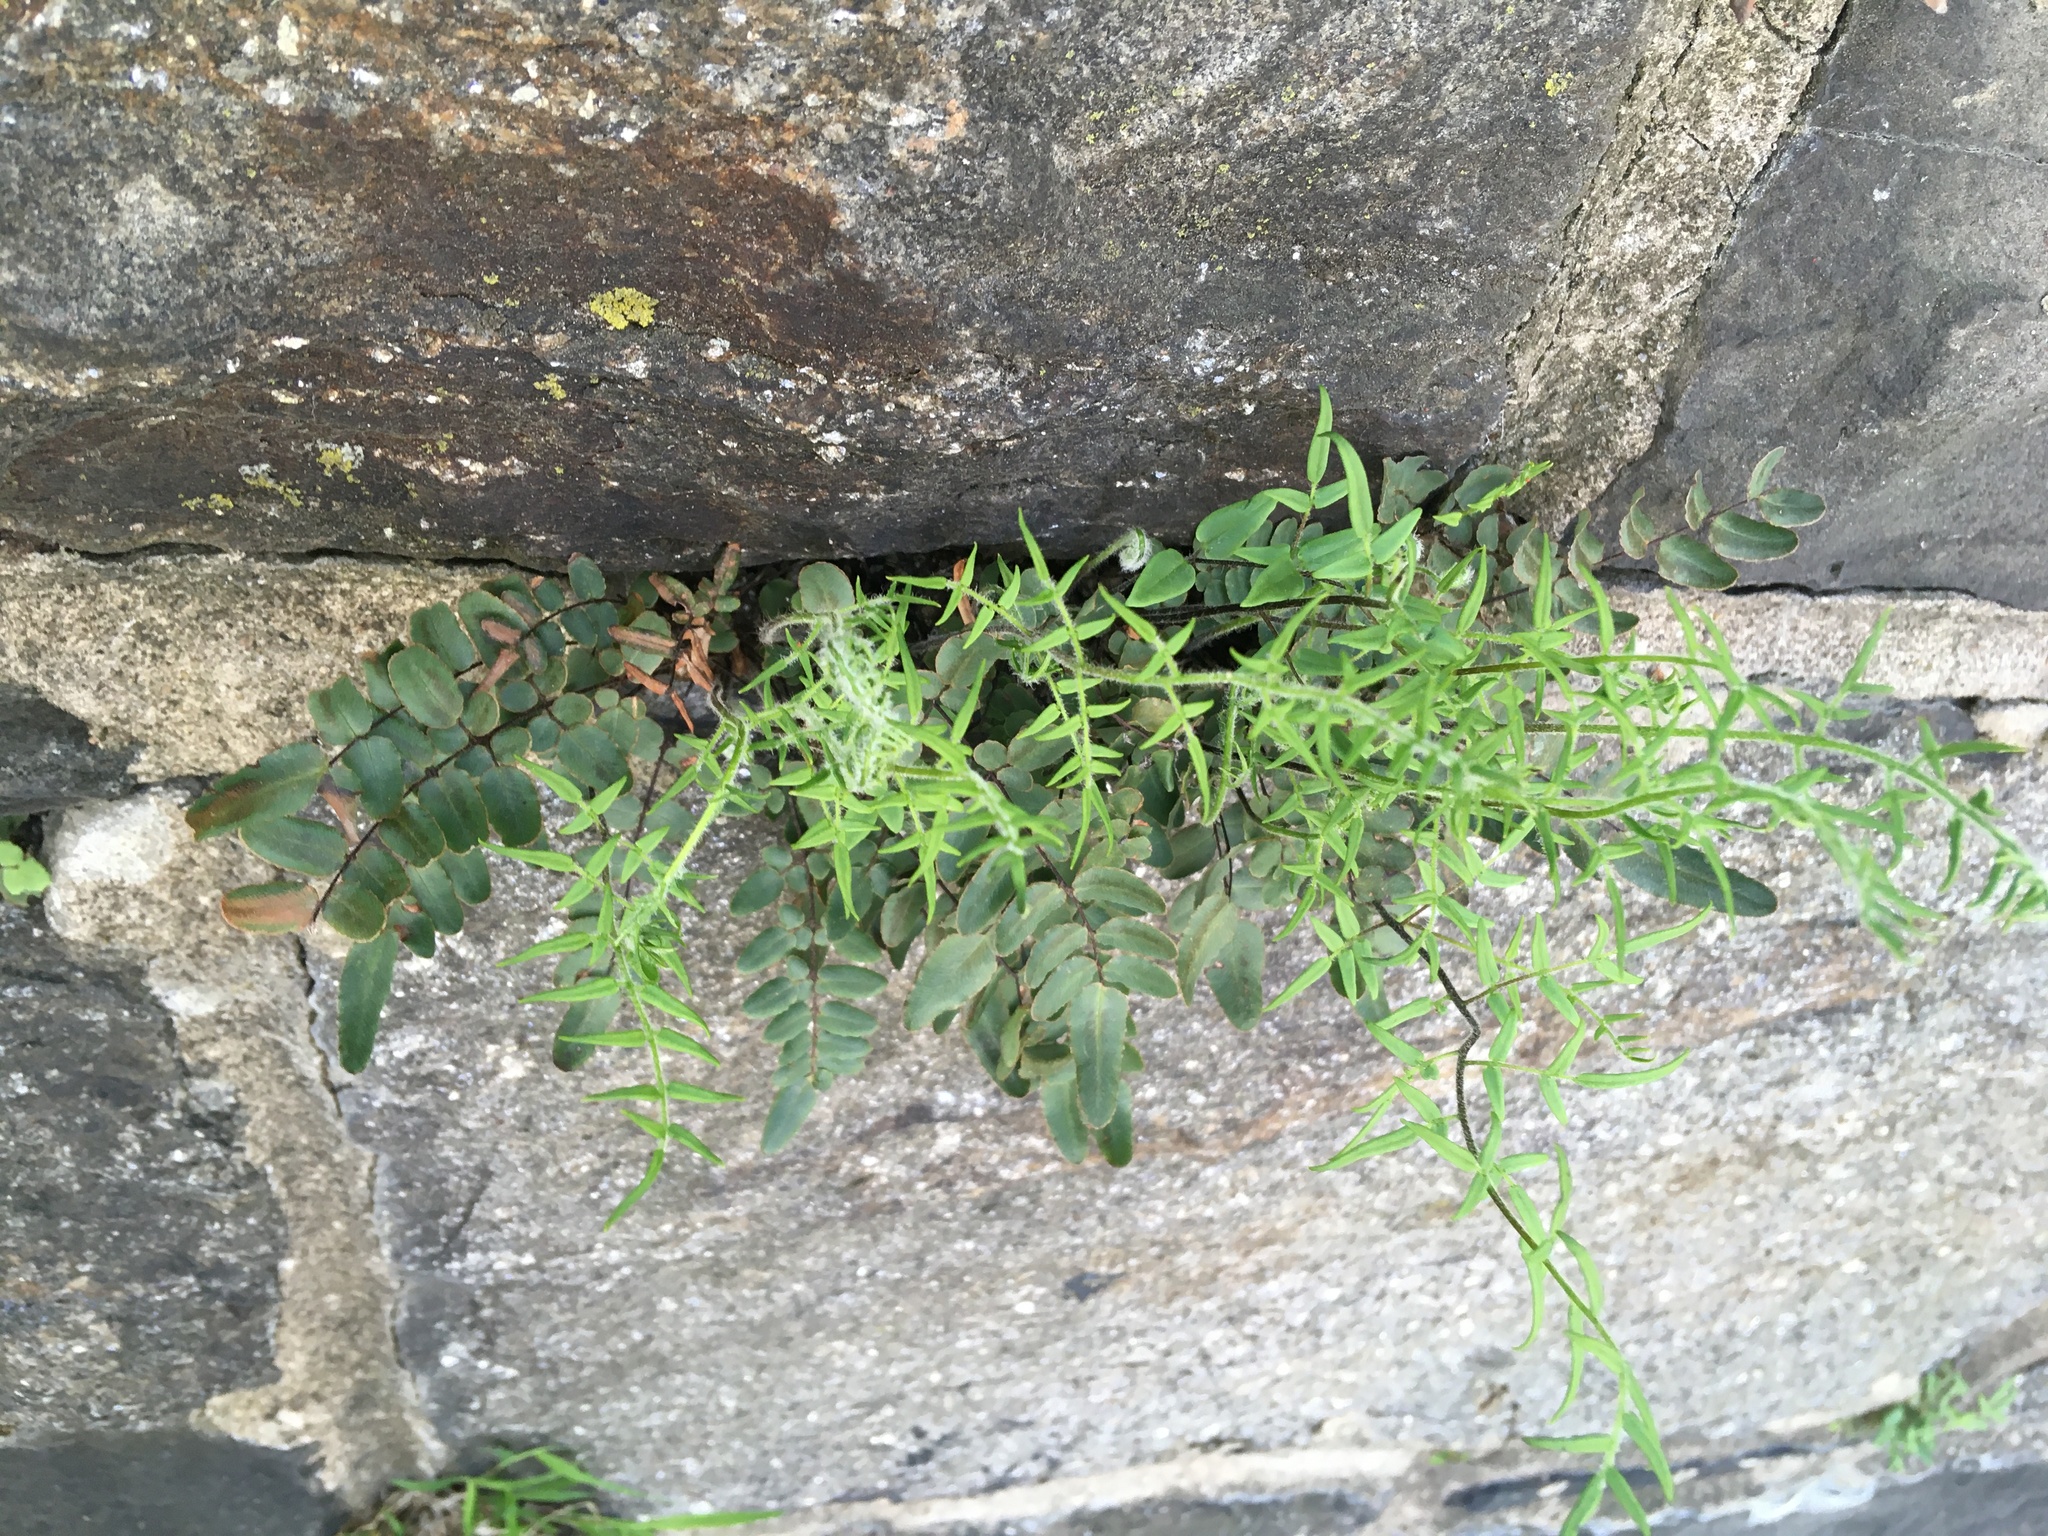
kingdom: Plantae
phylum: Tracheophyta
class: Polypodiopsida
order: Polypodiales
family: Pteridaceae
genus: Pellaea
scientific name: Pellaea atropurpurea
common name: Hairy cliffbrake
